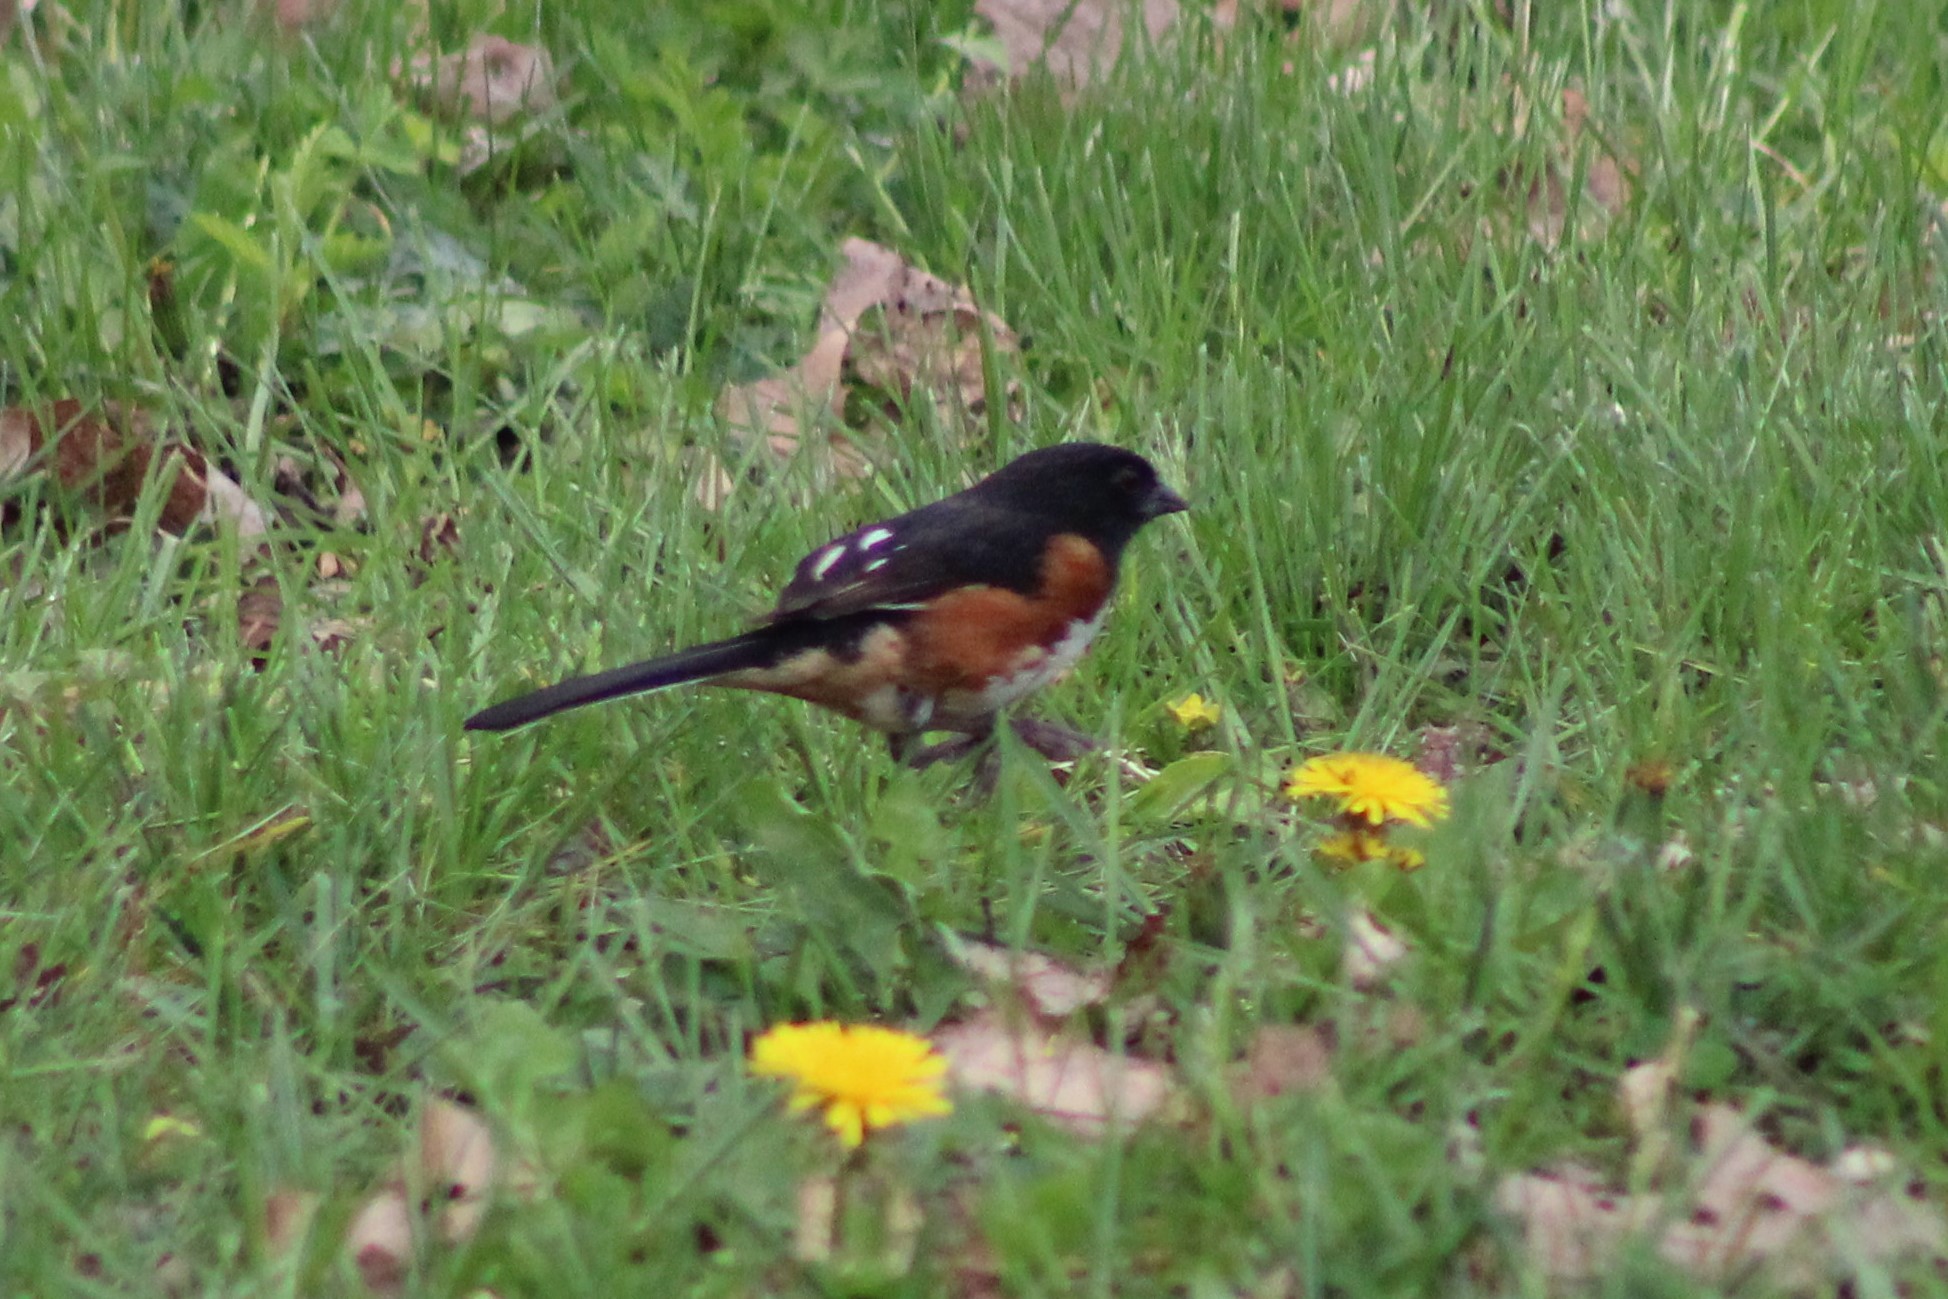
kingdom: Animalia
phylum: Chordata
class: Aves
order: Passeriformes
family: Passerellidae
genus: Pipilo
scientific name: Pipilo erythrophthalmus
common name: Eastern towhee
